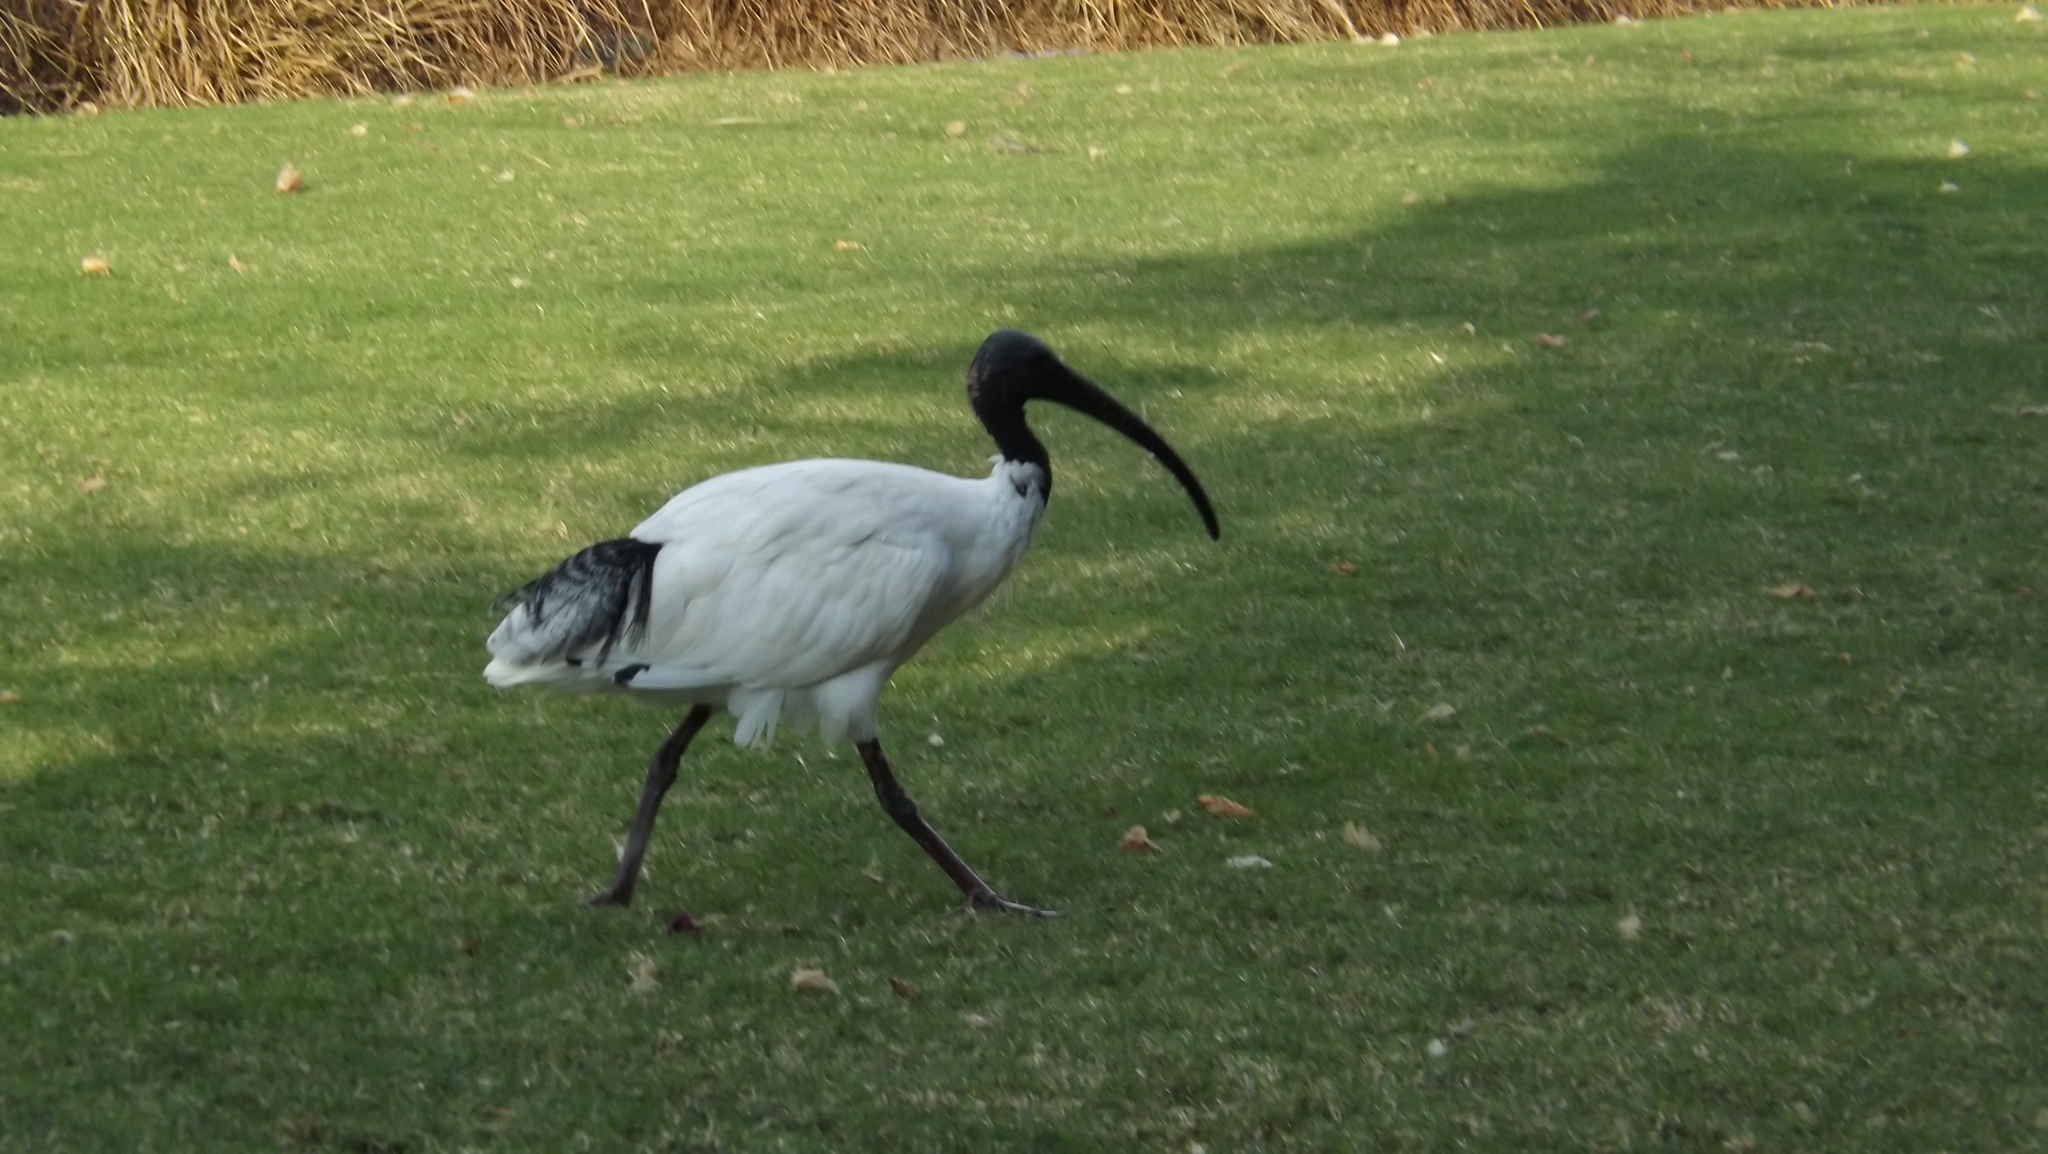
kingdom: Animalia
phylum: Chordata
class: Aves
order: Pelecaniformes
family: Threskiornithidae
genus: Threskiornis
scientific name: Threskiornis molucca
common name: Australian white ibis
